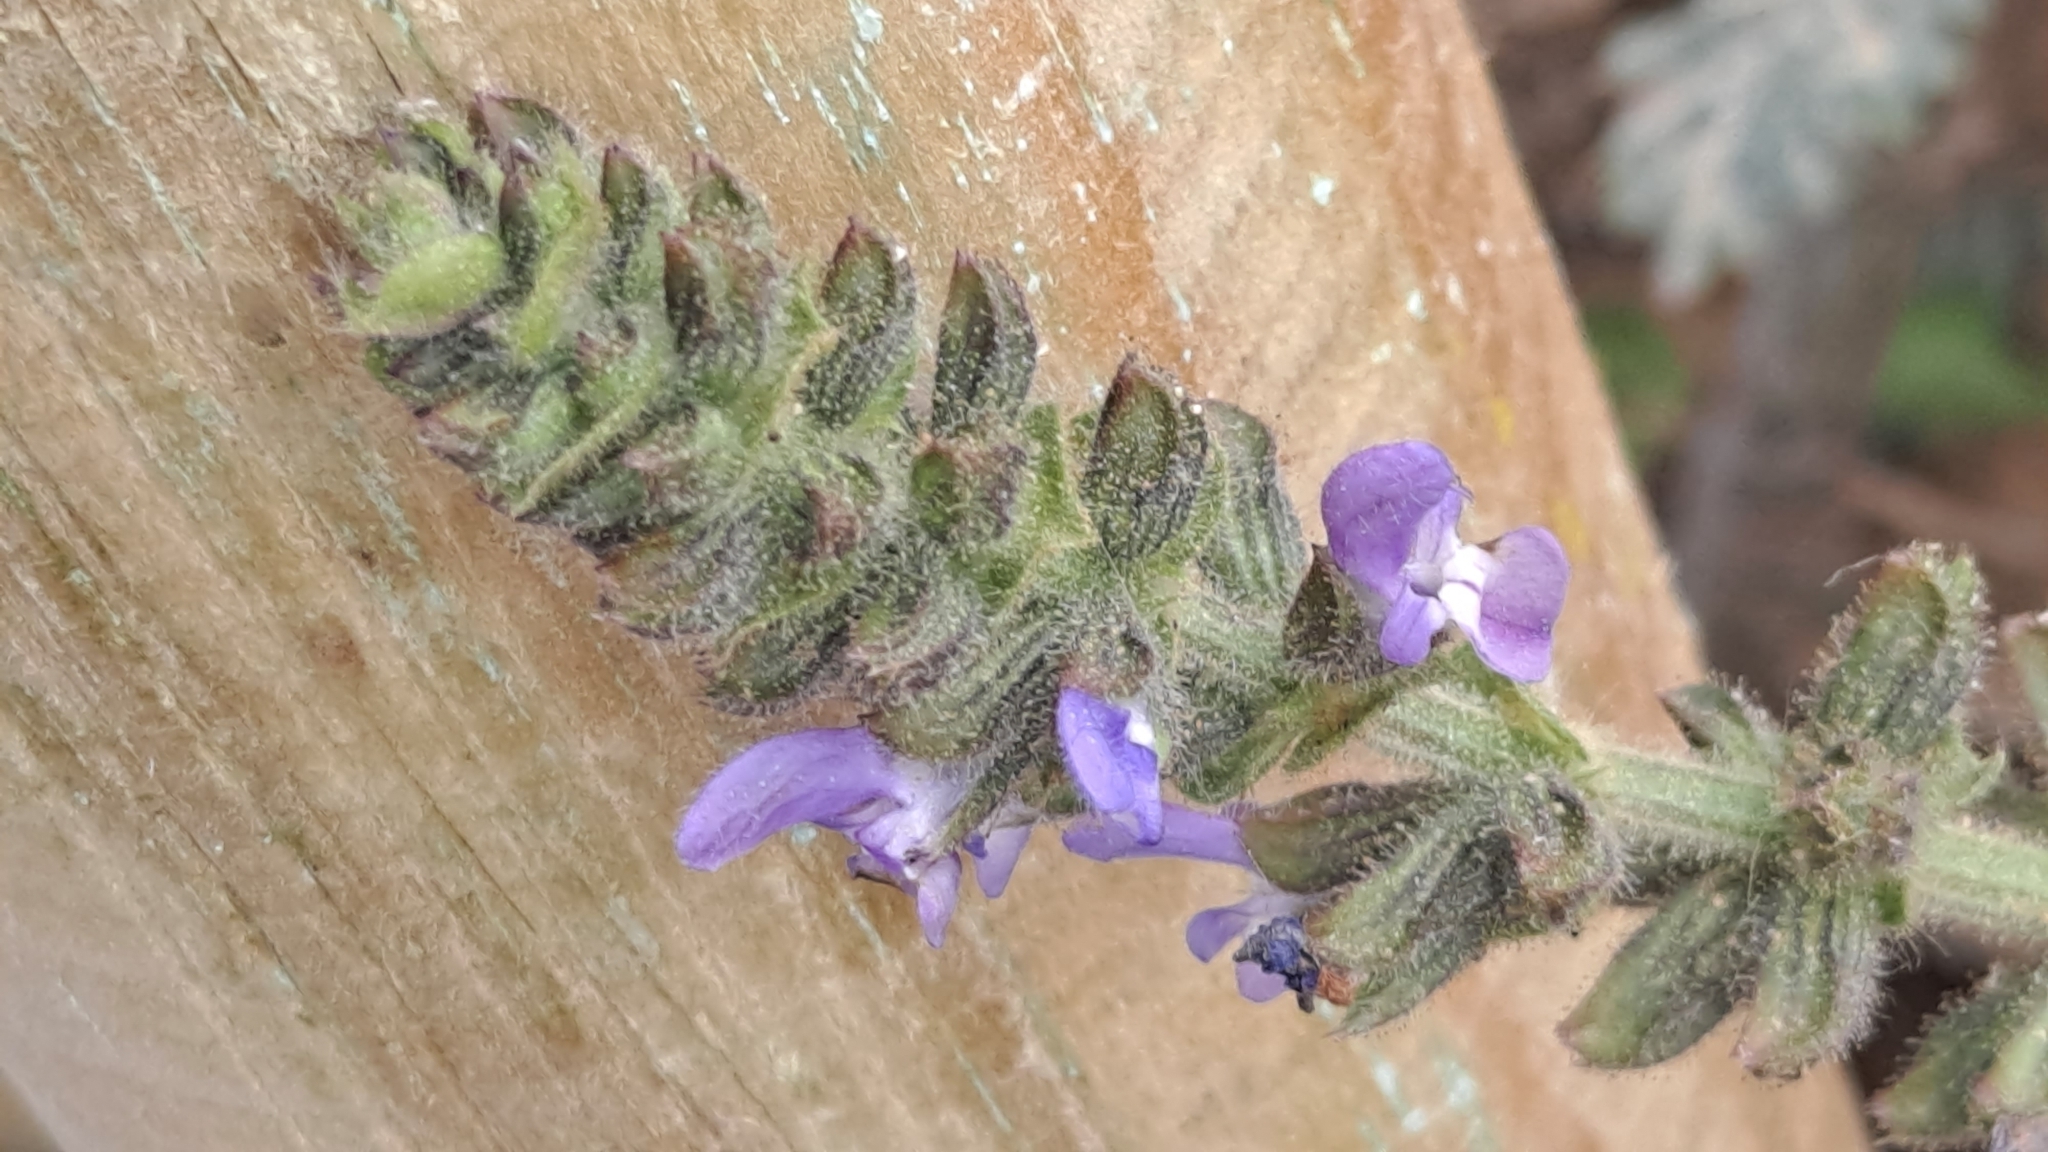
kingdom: Plantae
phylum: Tracheophyta
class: Magnoliopsida
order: Lamiales
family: Lamiaceae
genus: Salvia
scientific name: Salvia verbenaca
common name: Wild clary
